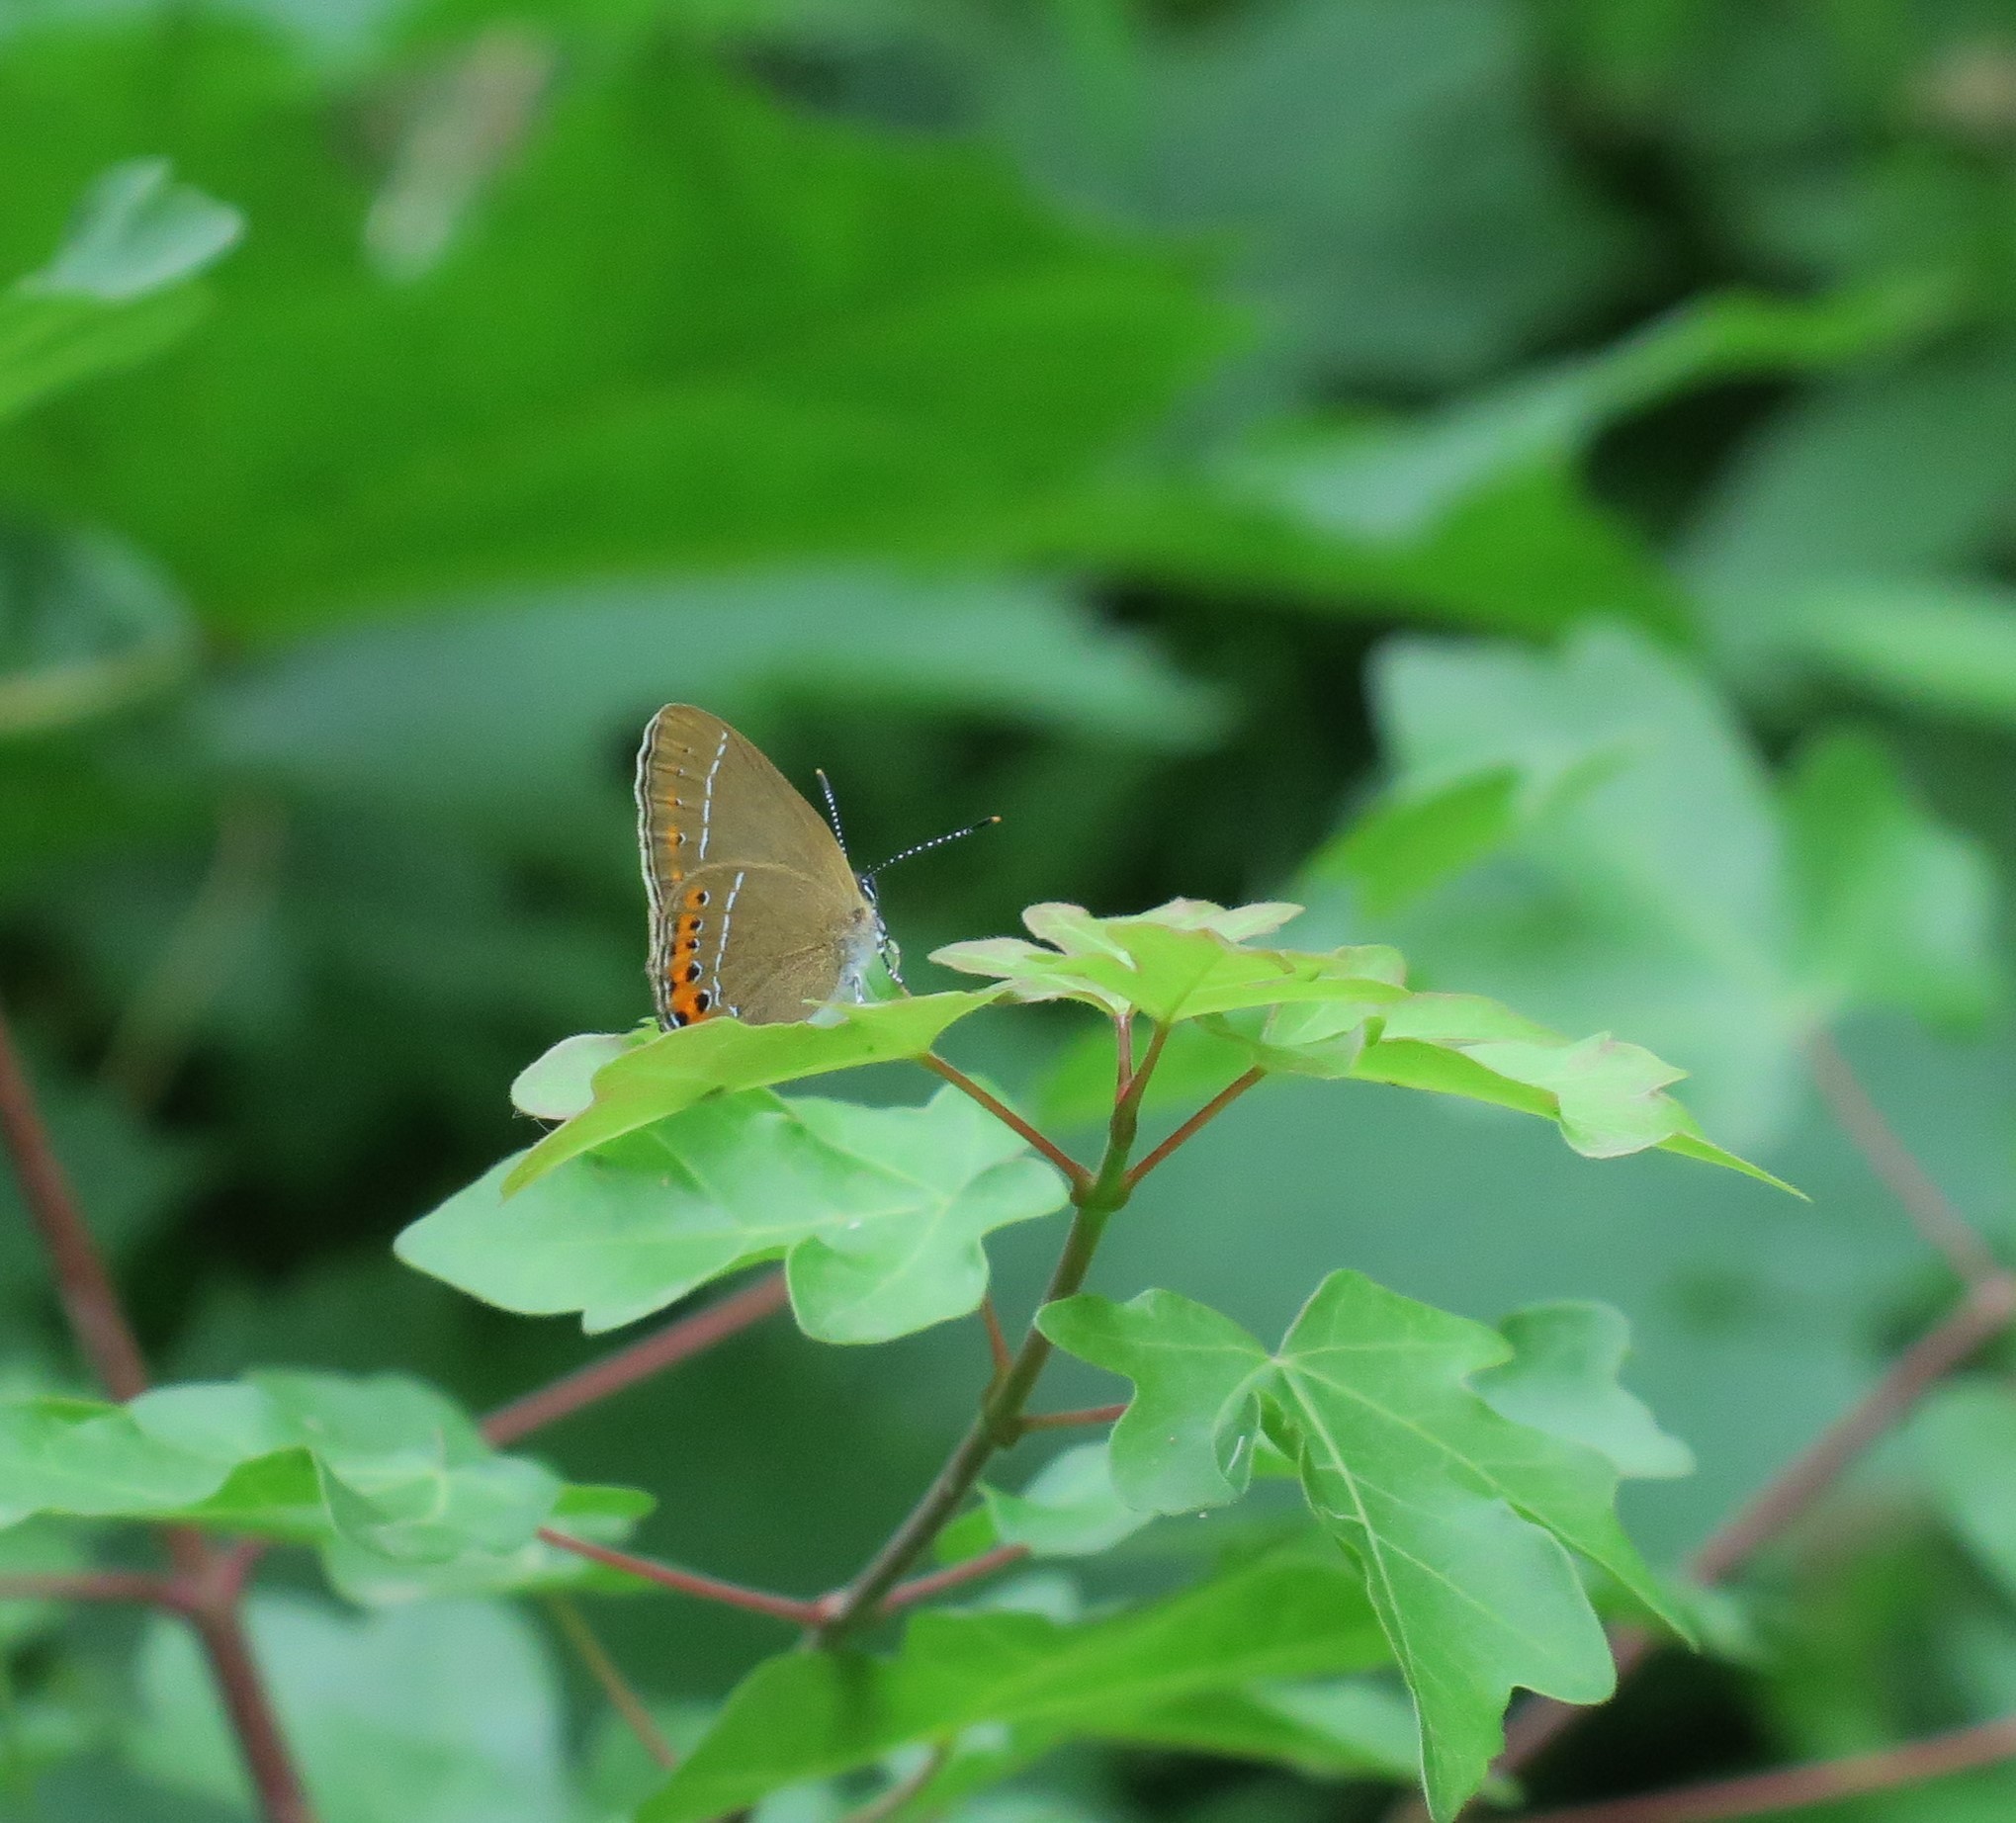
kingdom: Animalia
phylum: Arthropoda
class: Insecta
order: Lepidoptera
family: Lycaenidae
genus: Fixsenia
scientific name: Fixsenia pruni
